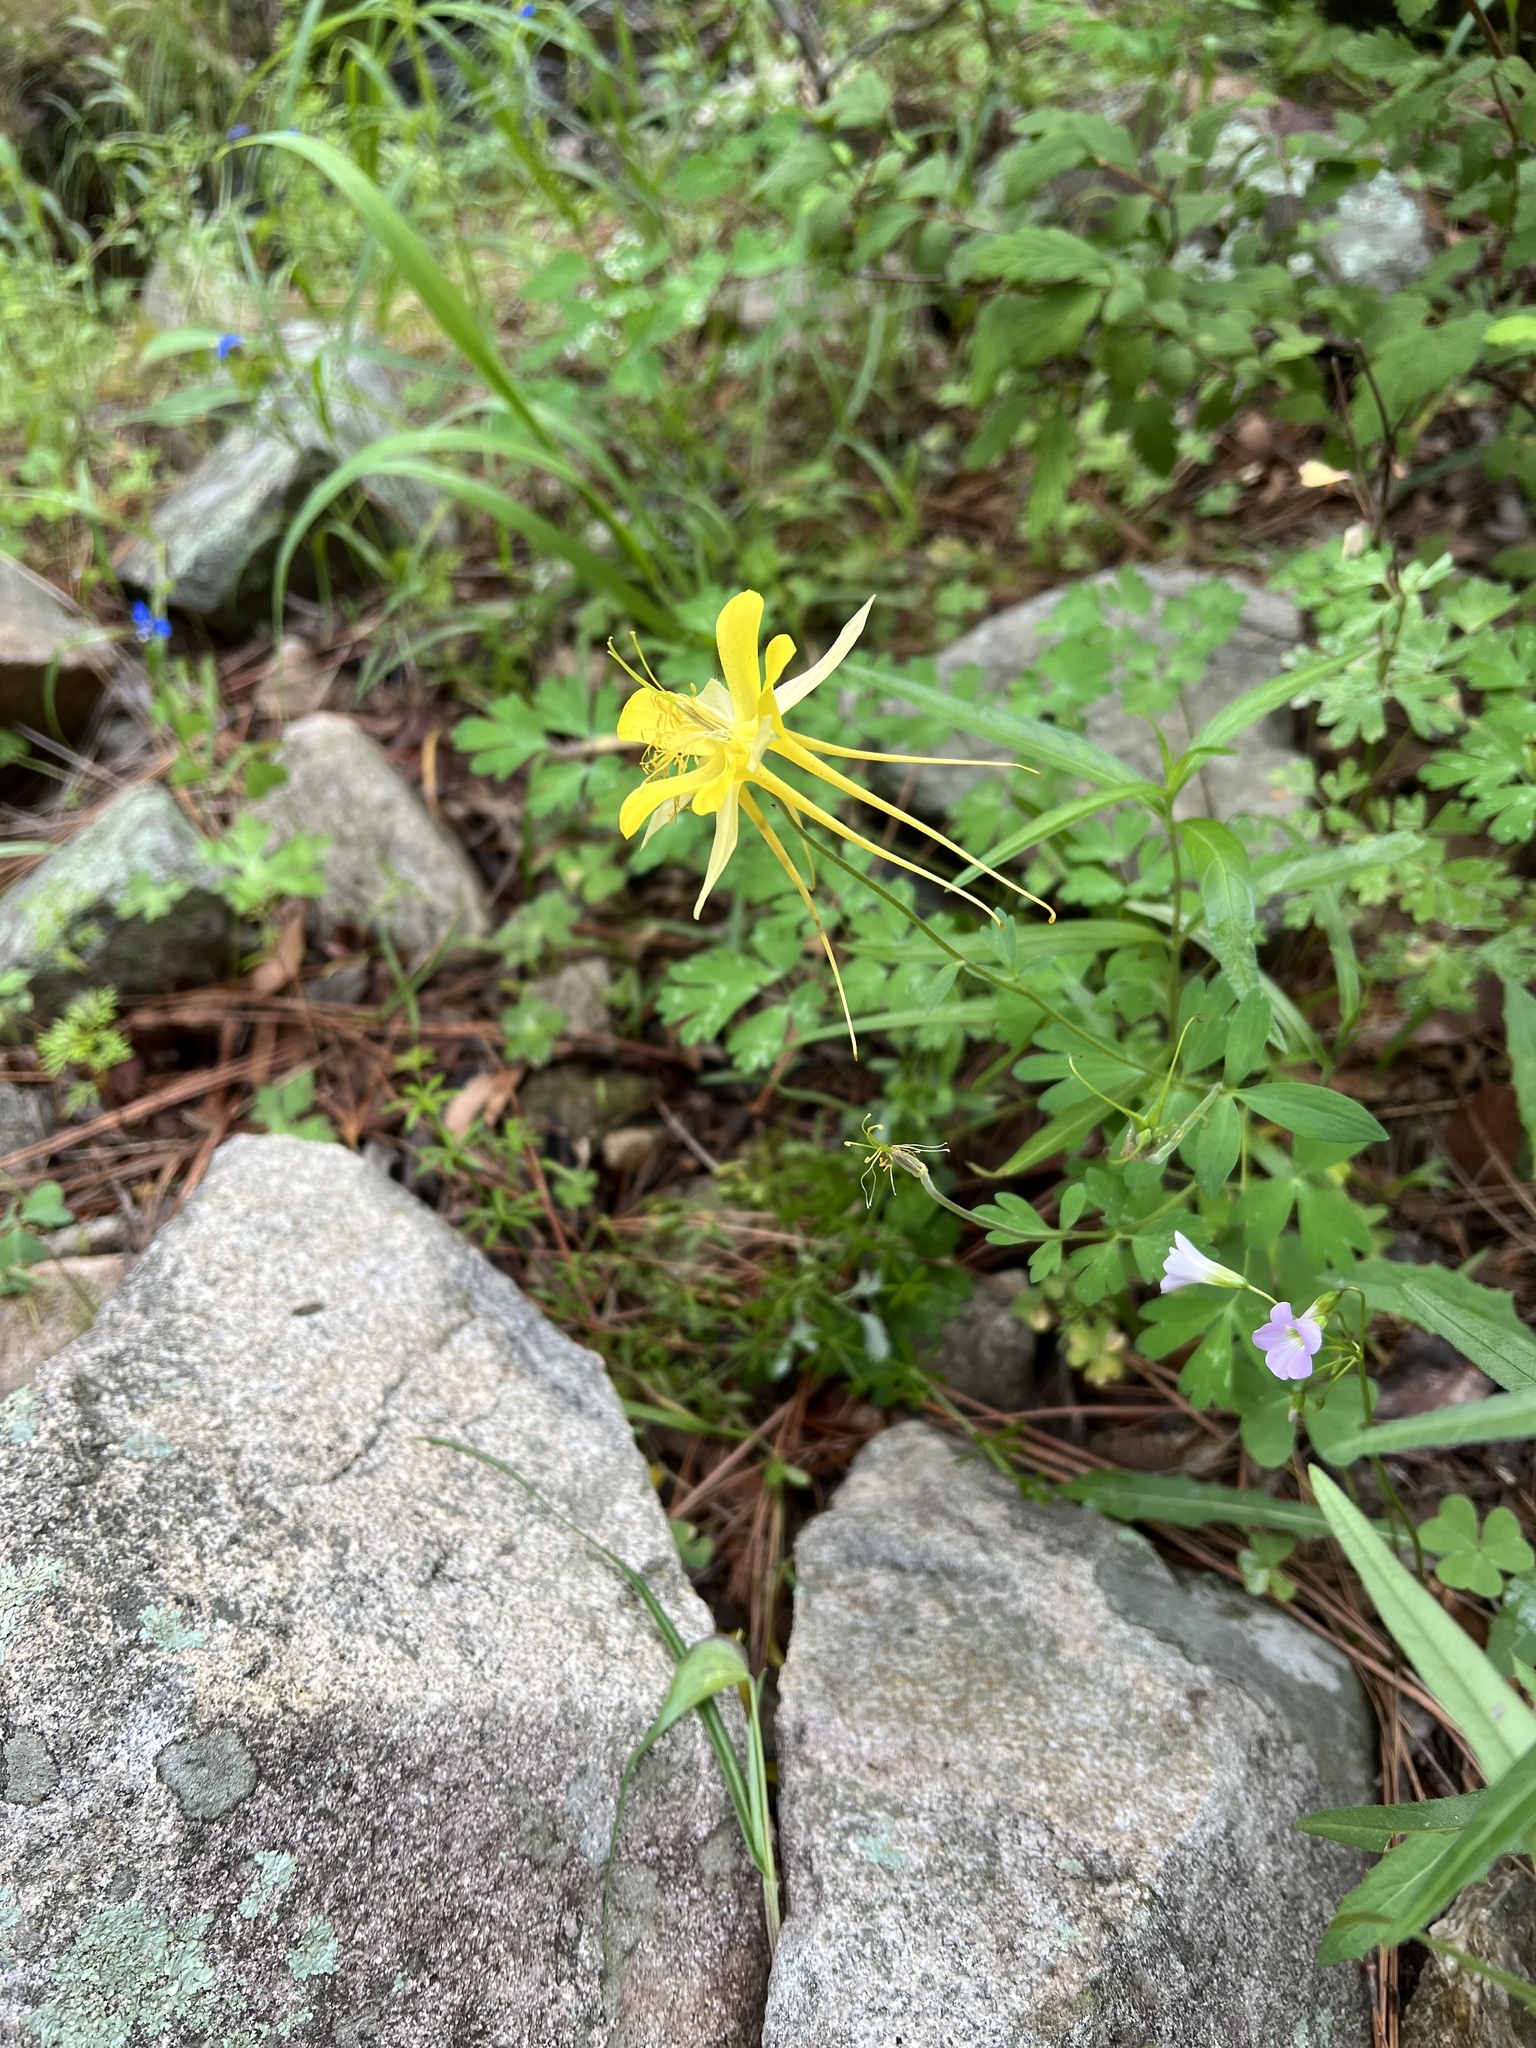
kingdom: Plantae
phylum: Tracheophyta
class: Magnoliopsida
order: Ranunculales
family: Ranunculaceae
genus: Aquilegia
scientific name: Aquilegia chrysantha
